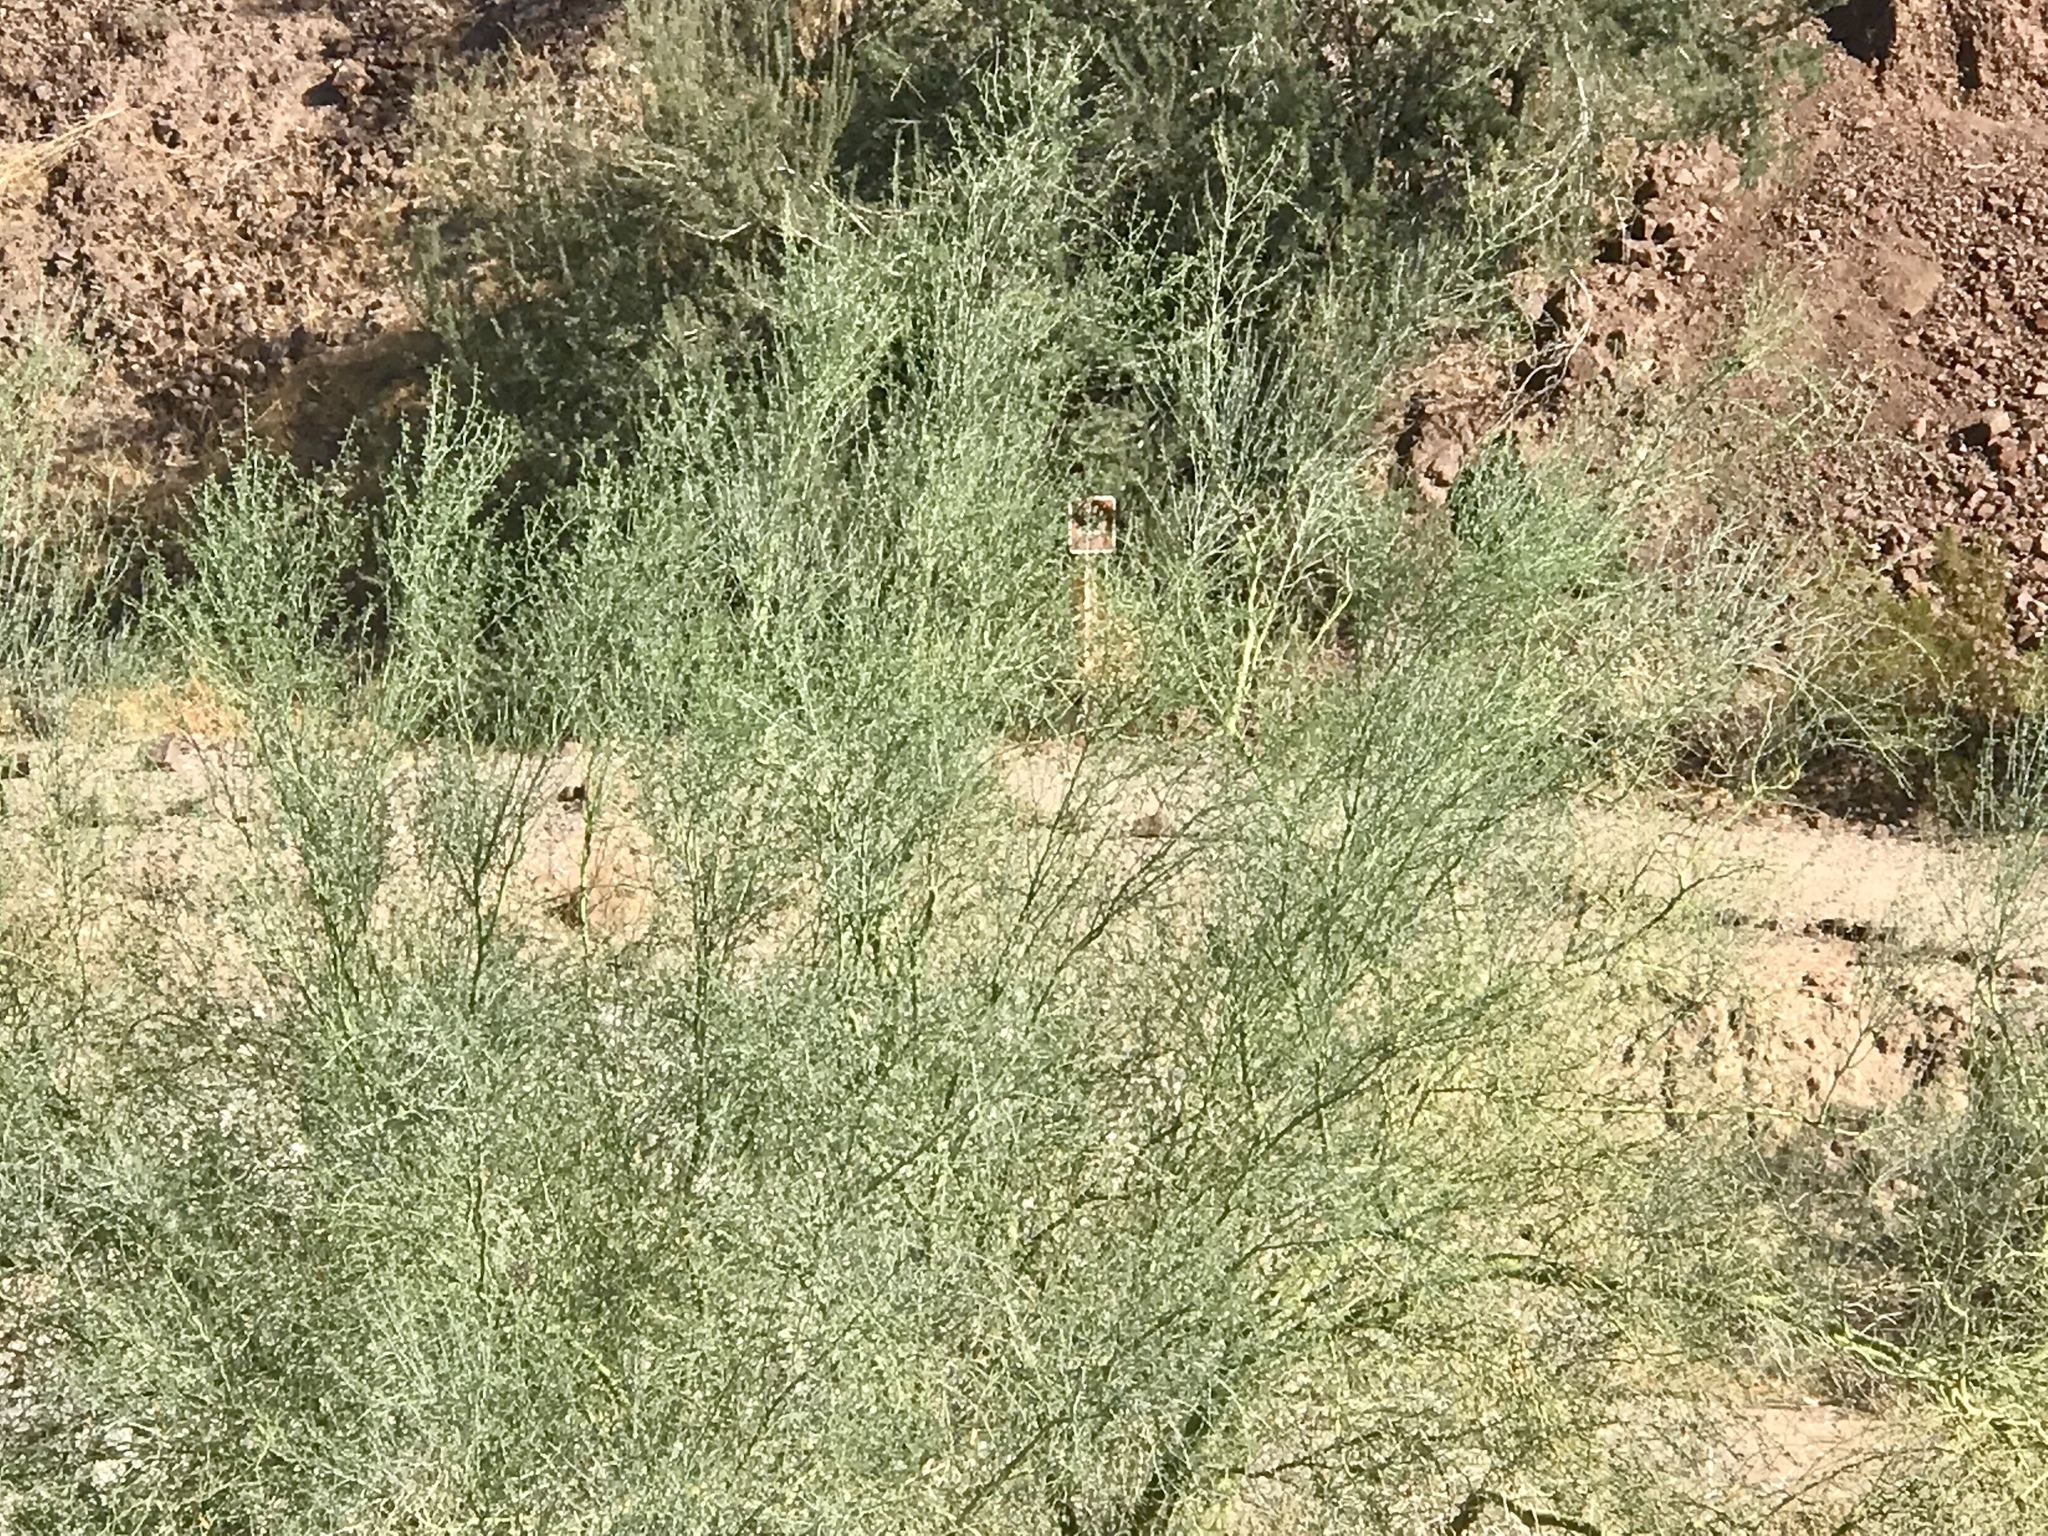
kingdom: Plantae
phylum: Tracheophyta
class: Magnoliopsida
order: Fabales
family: Fabaceae
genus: Parkinsonia
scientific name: Parkinsonia florida
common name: Blue paloverde
